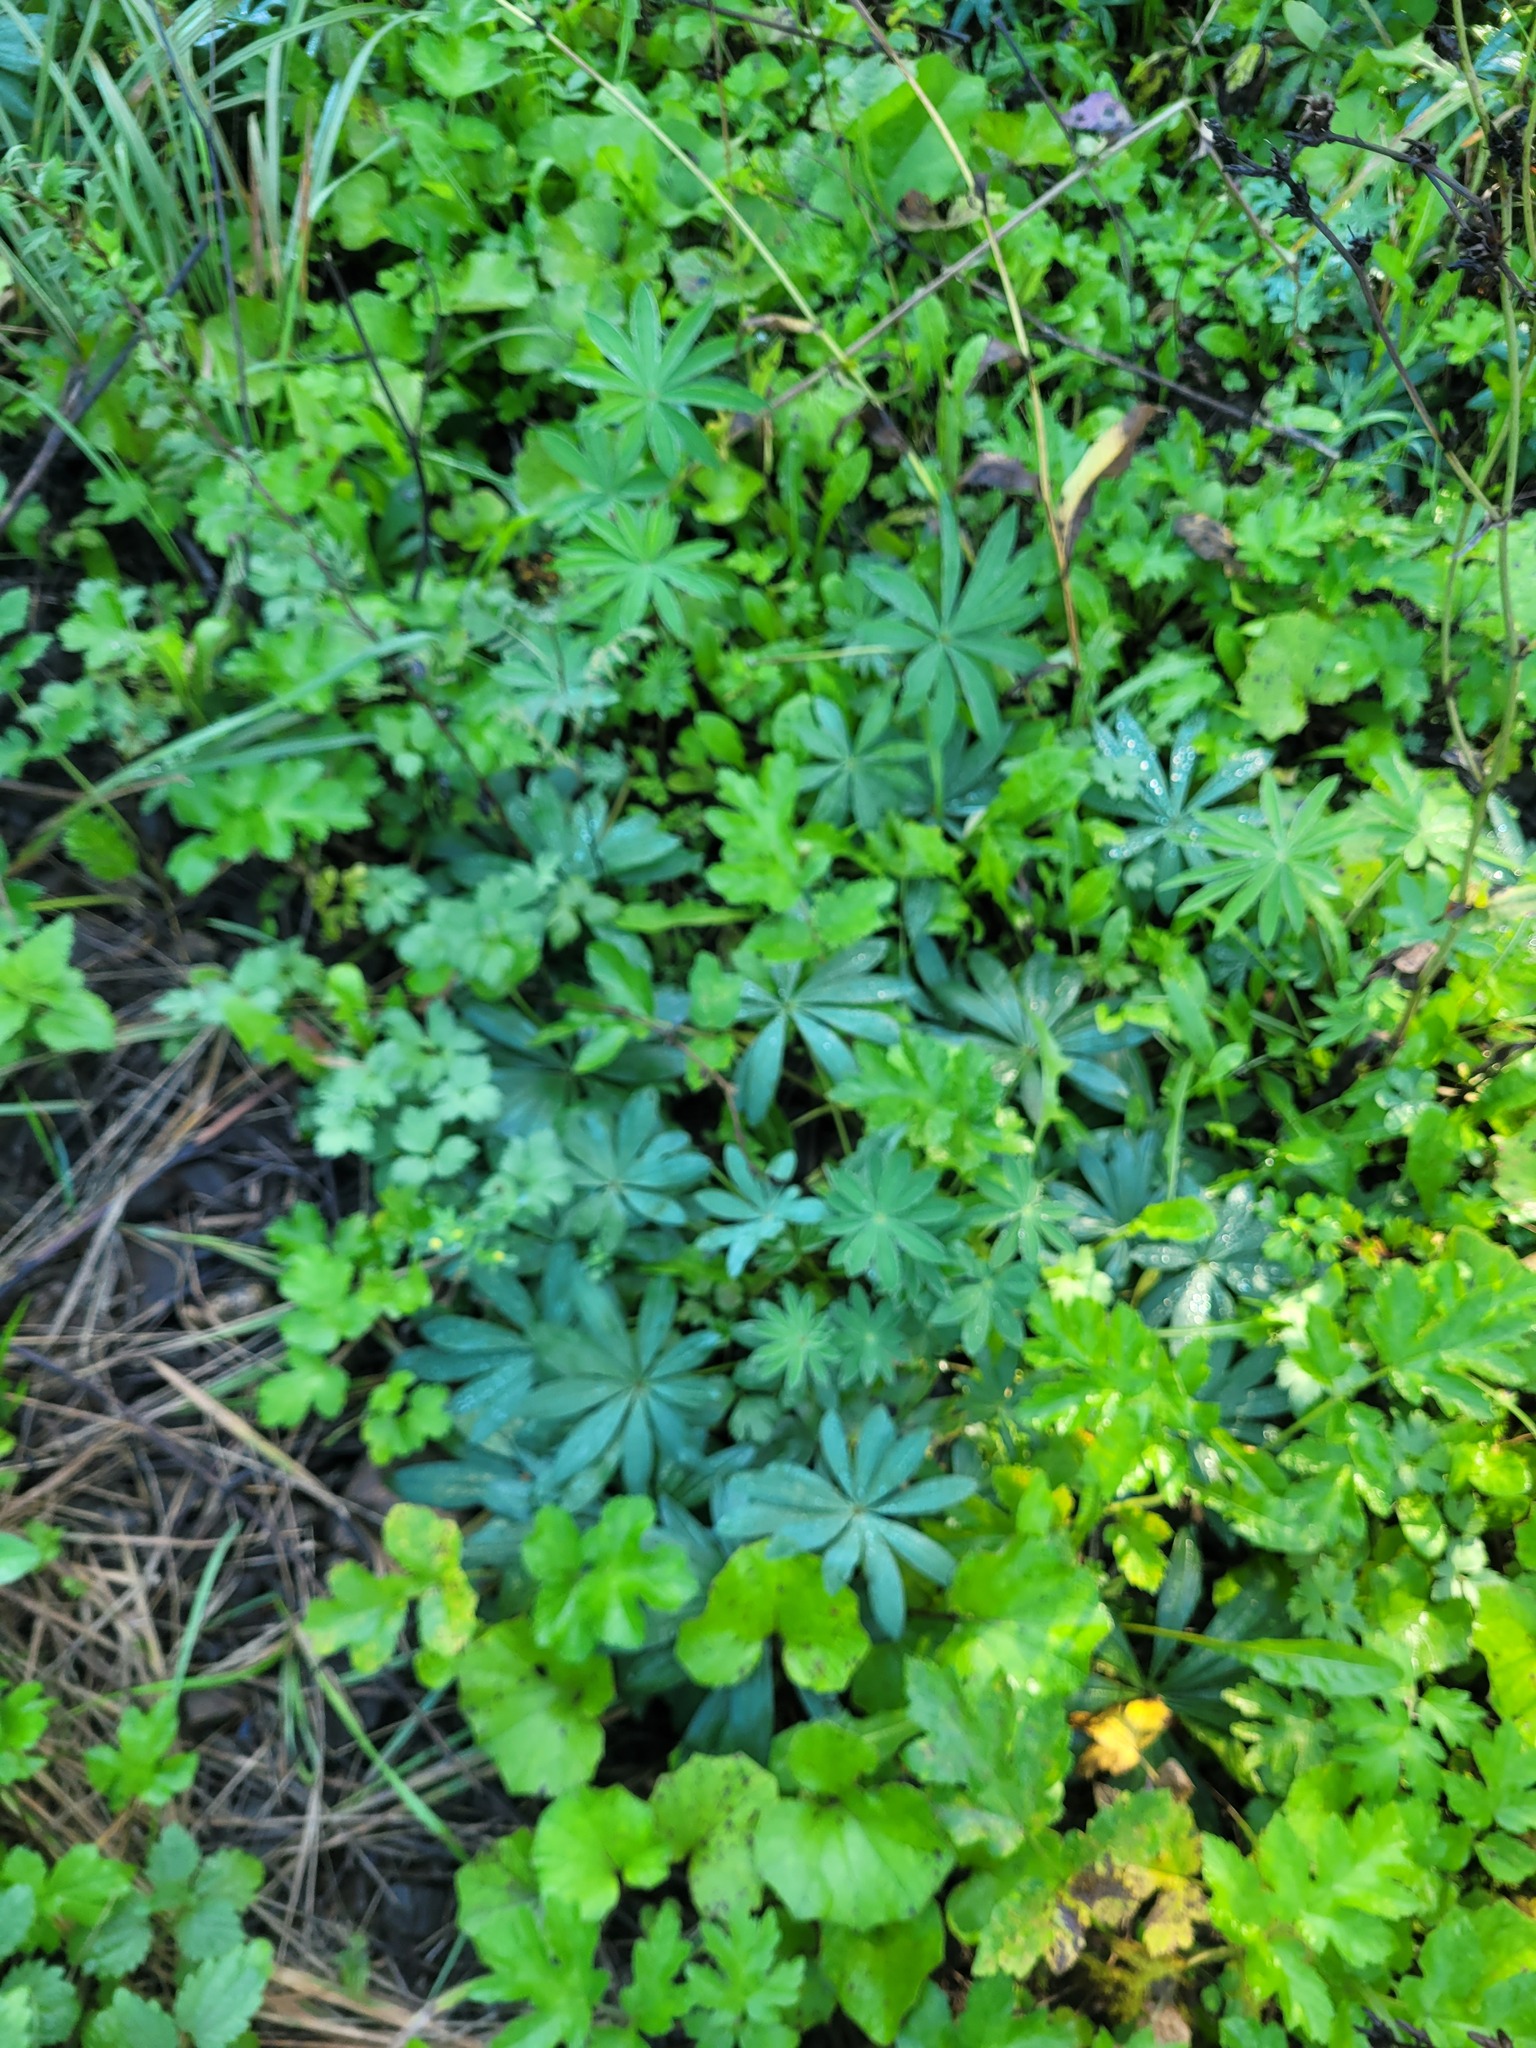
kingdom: Plantae
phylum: Tracheophyta
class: Magnoliopsida
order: Fabales
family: Fabaceae
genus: Lupinus
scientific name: Lupinus polyphyllus
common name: Garden lupin
